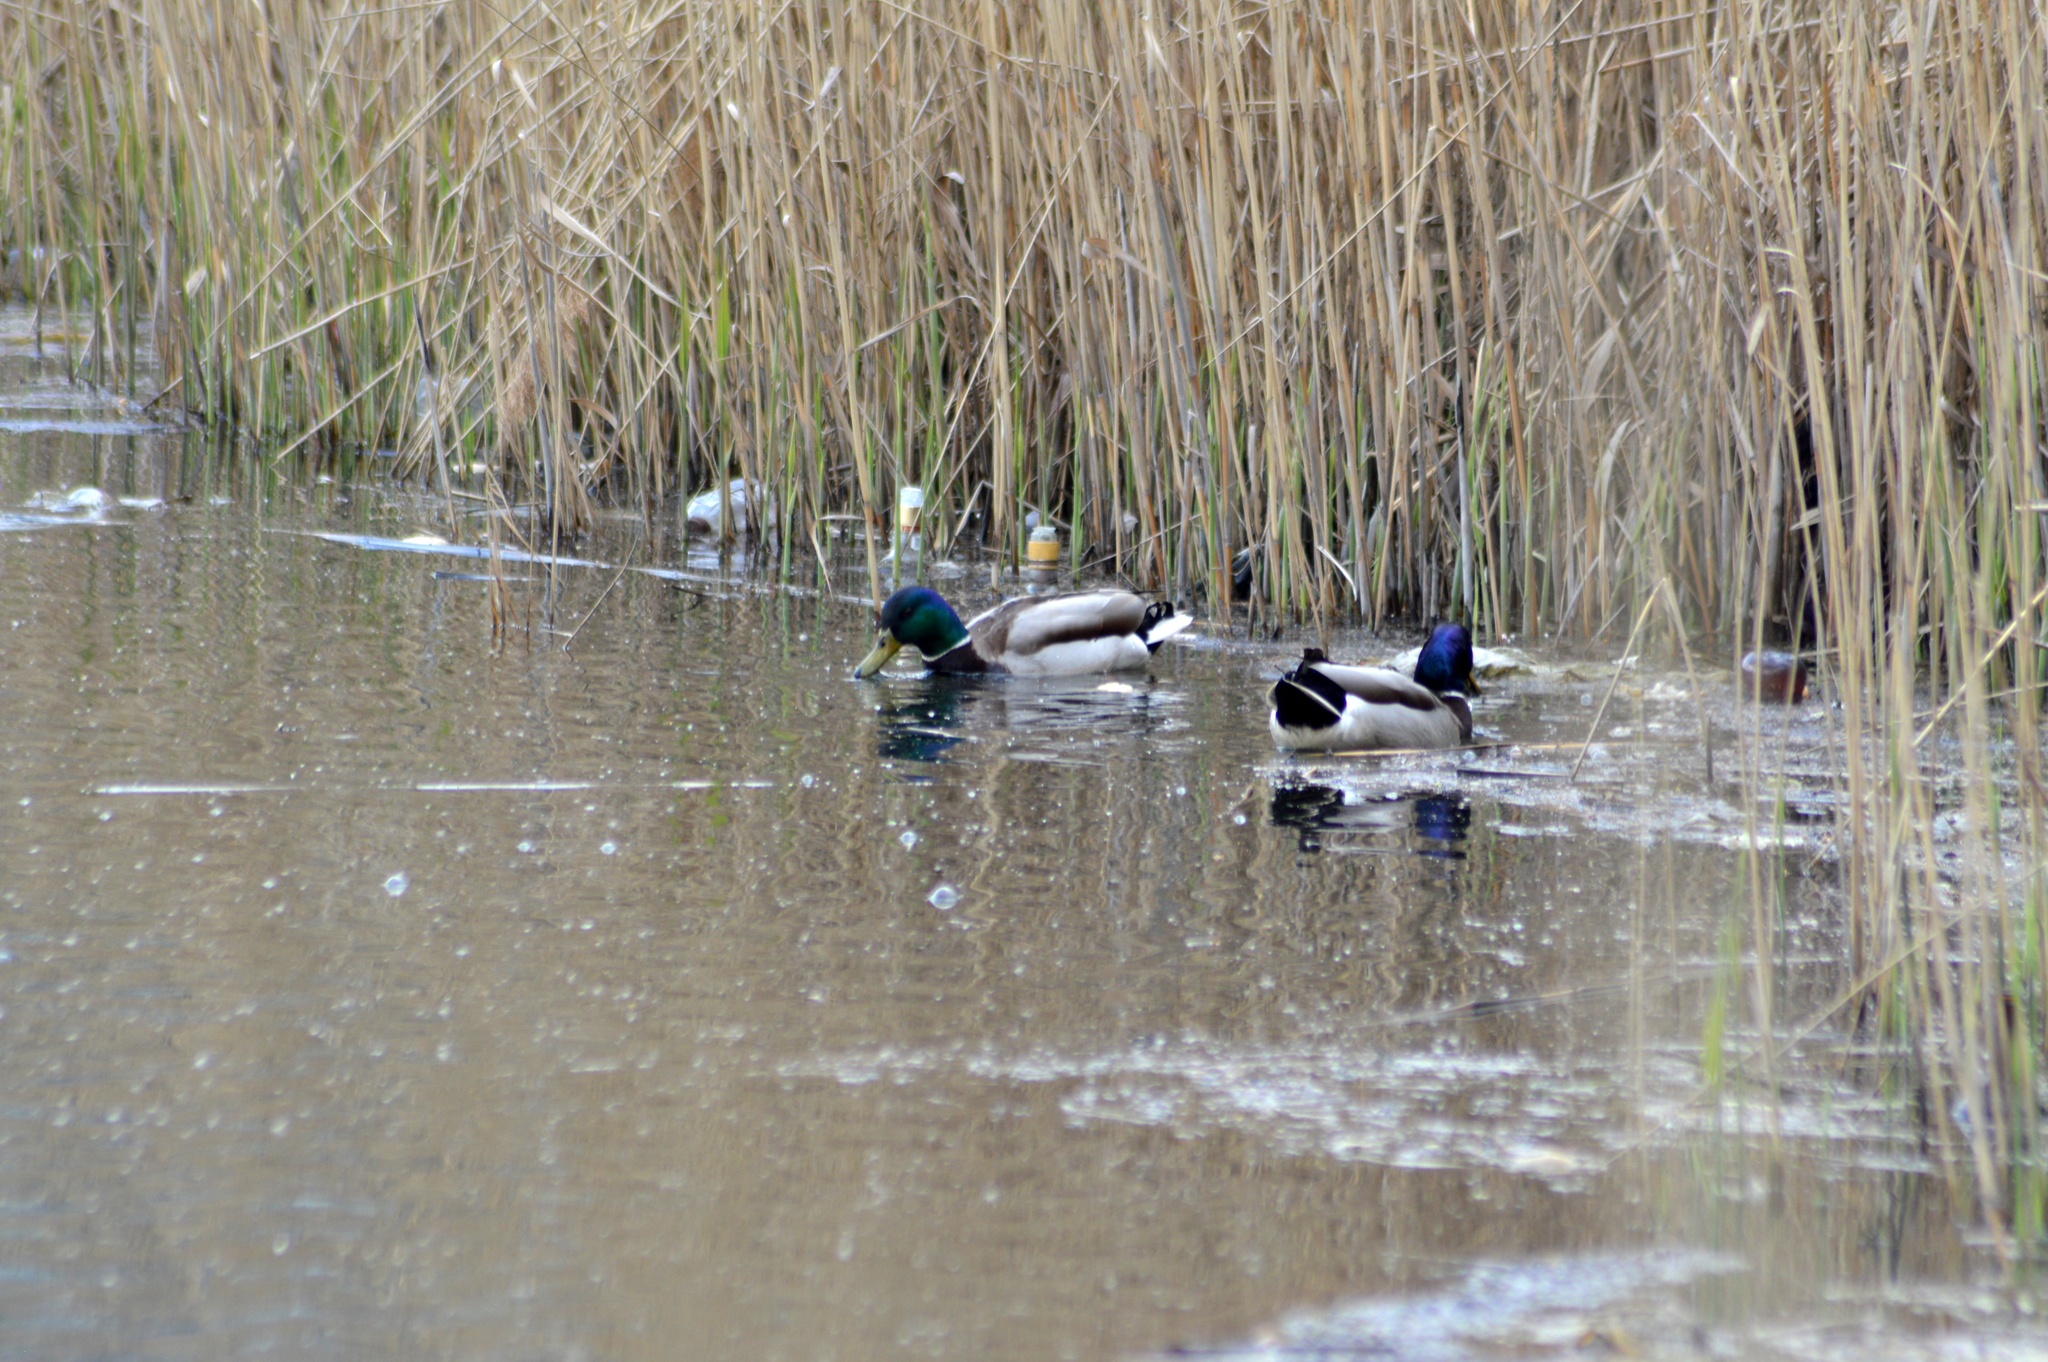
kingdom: Animalia
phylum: Chordata
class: Aves
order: Anseriformes
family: Anatidae
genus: Anas
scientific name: Anas platyrhynchos
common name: Mallard
